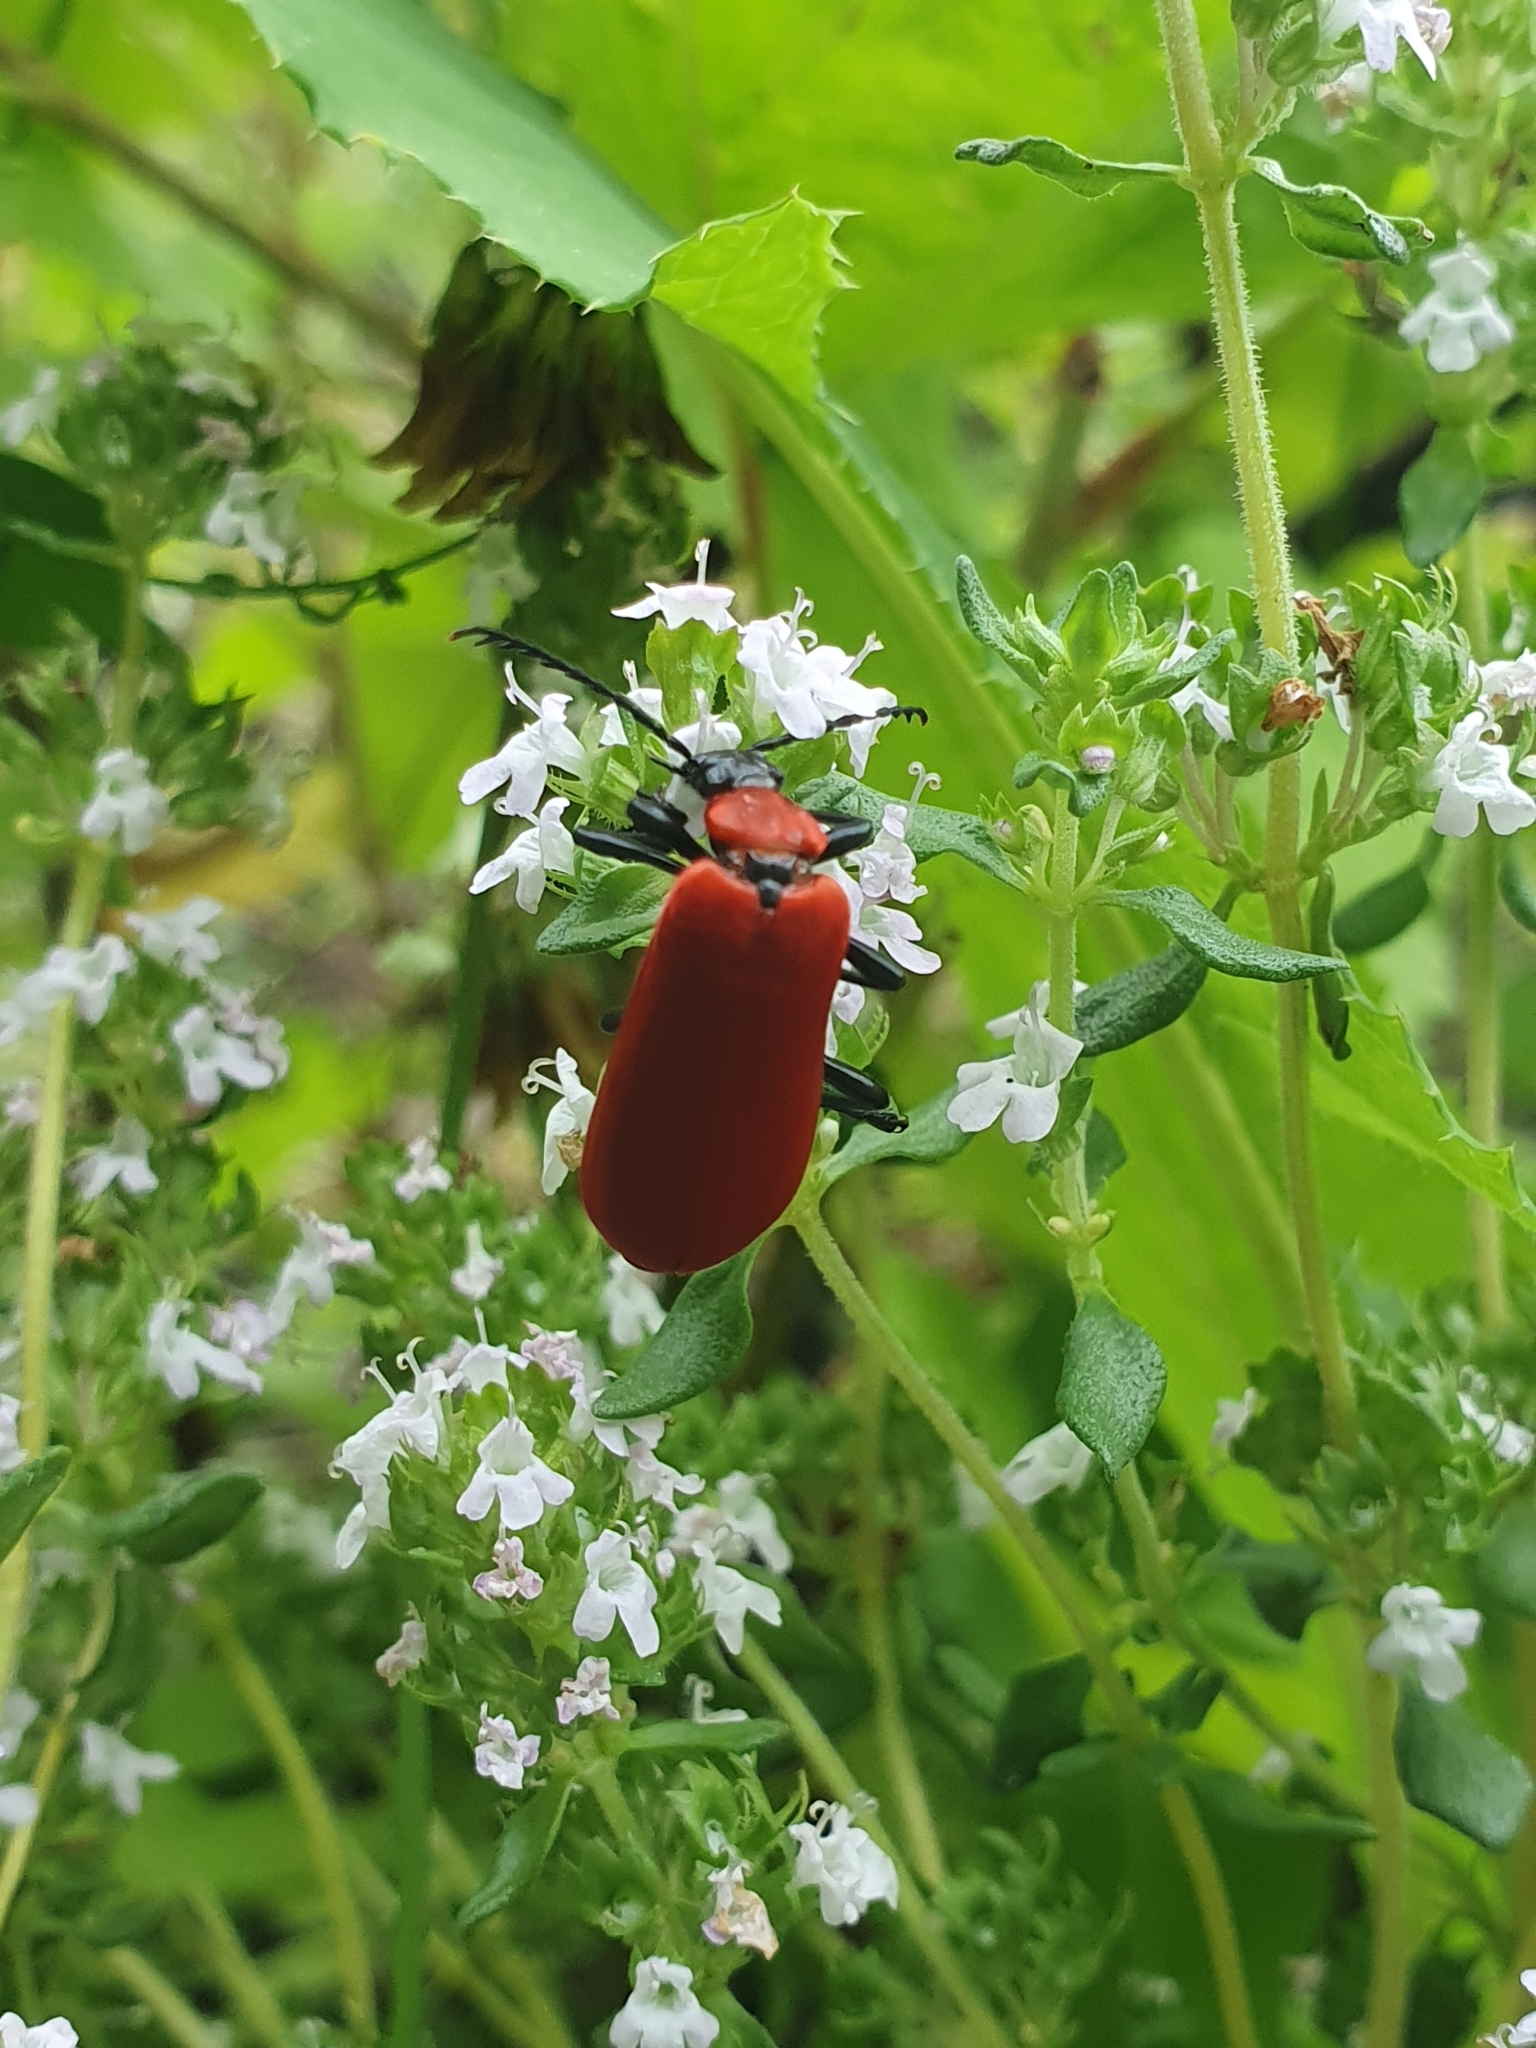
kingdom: Animalia
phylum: Arthropoda
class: Insecta
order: Coleoptera
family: Pyrochroidae
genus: Pyrochroa
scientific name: Pyrochroa coccinea
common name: Black-headed cardinal beetle
